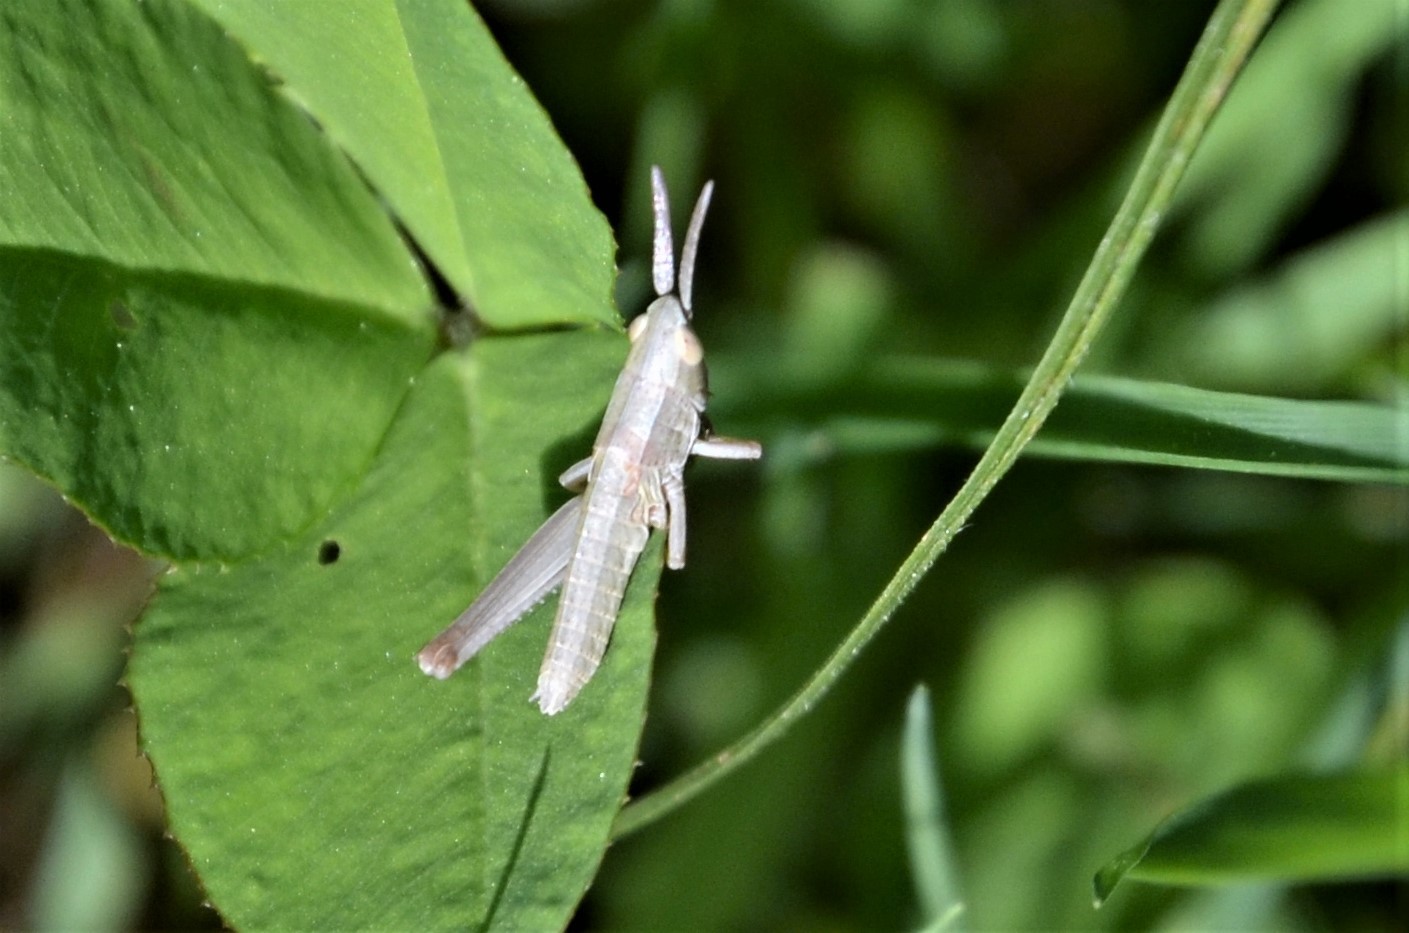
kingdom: Animalia
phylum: Arthropoda
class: Insecta
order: Orthoptera
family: Acrididae
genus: Euthystira
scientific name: Euthystira brachyptera
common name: Small gold grasshopper
